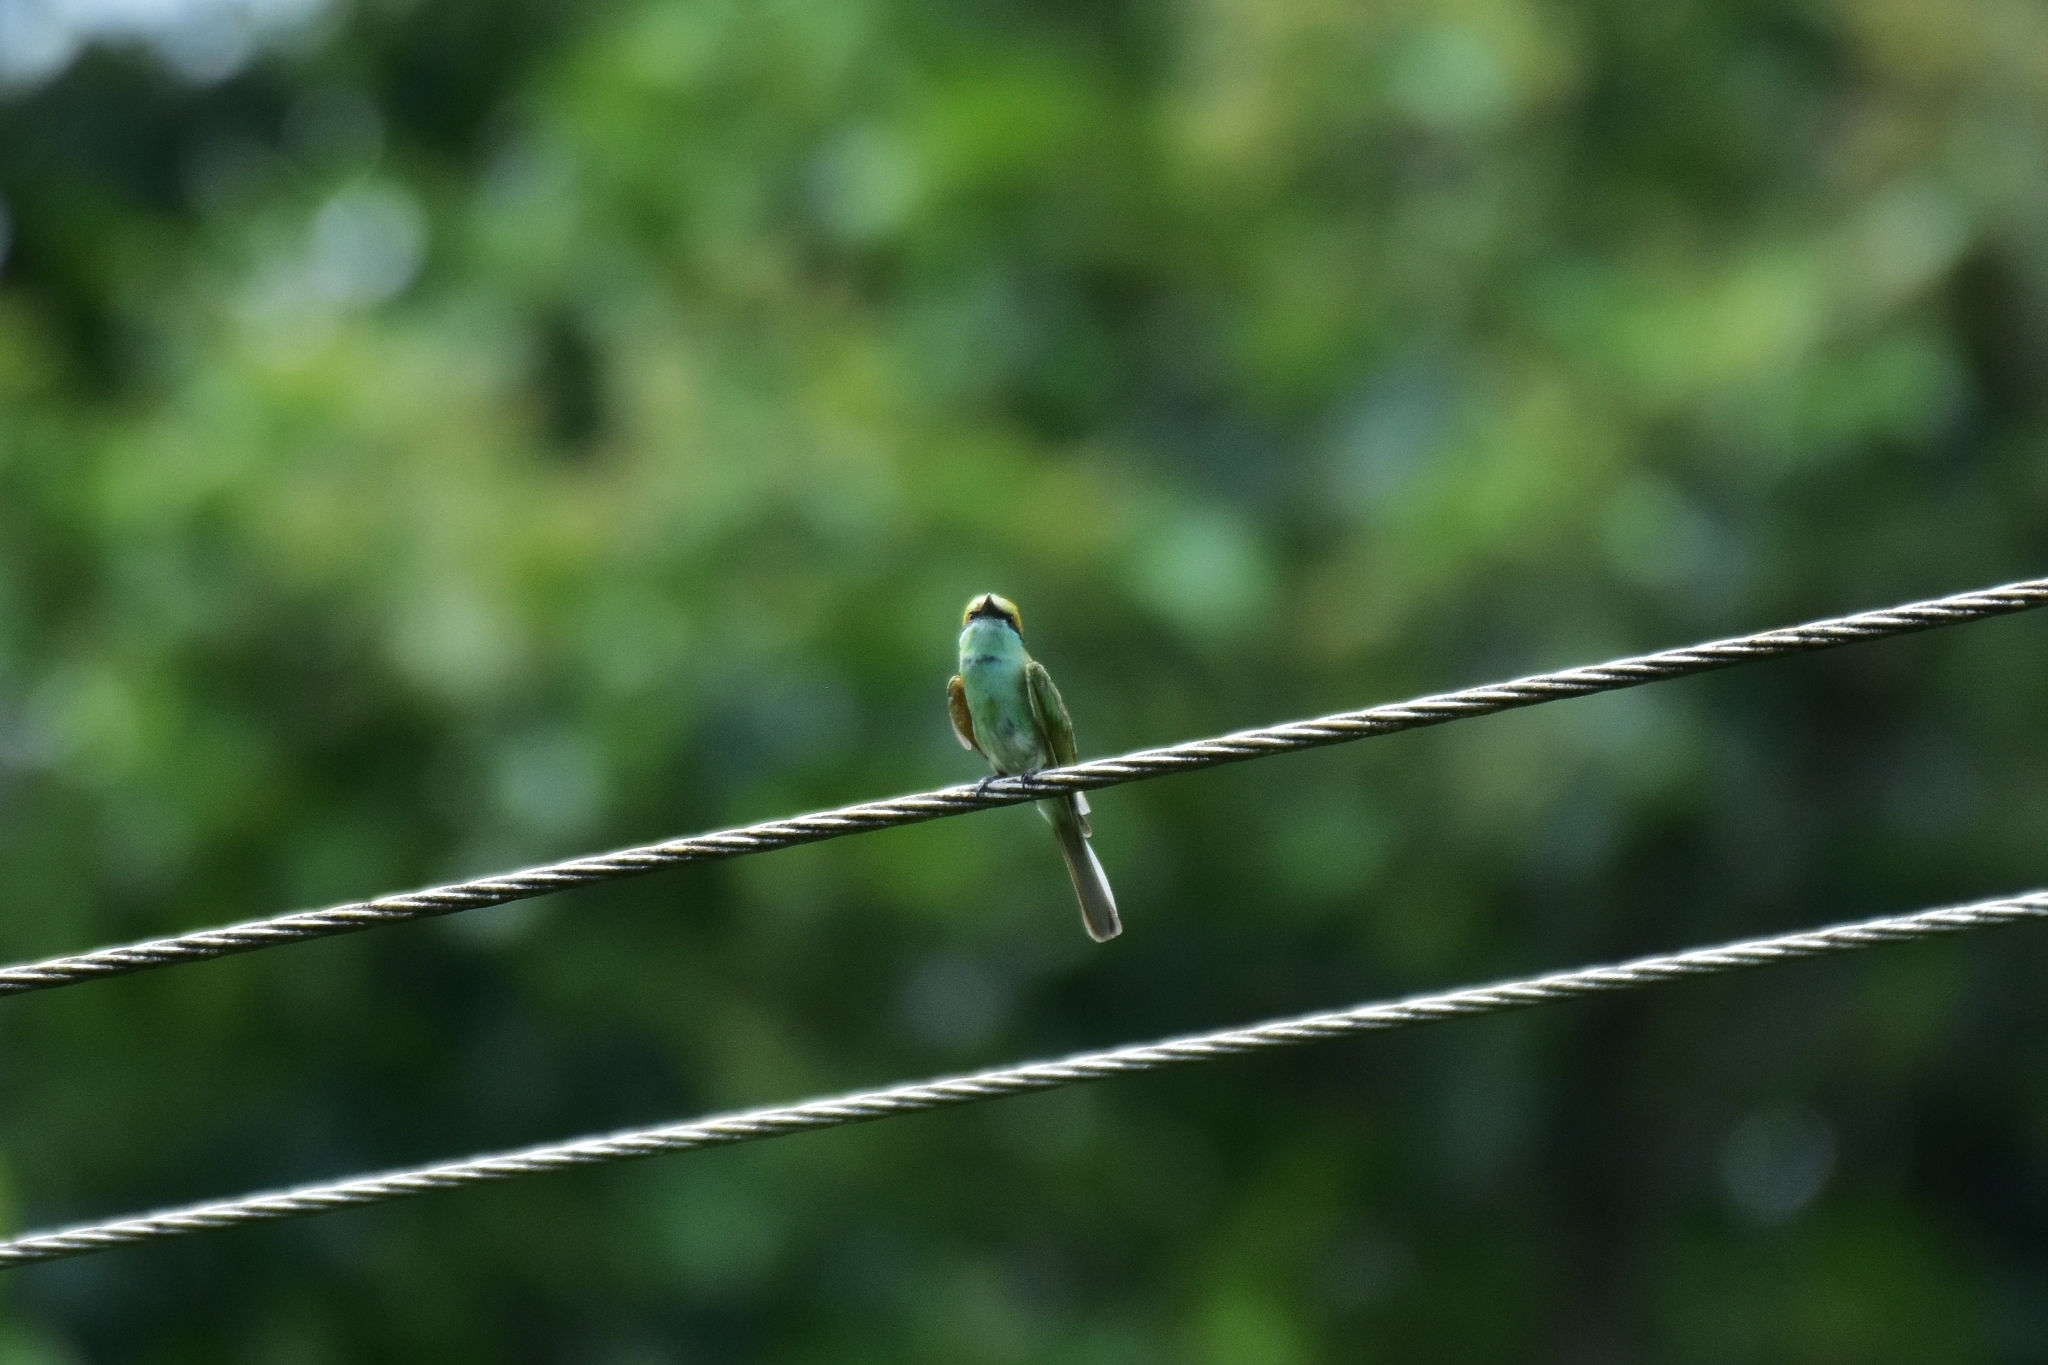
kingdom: Animalia
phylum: Chordata
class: Aves
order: Coraciiformes
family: Meropidae
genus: Merops
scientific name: Merops orientalis
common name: Green bee-eater
